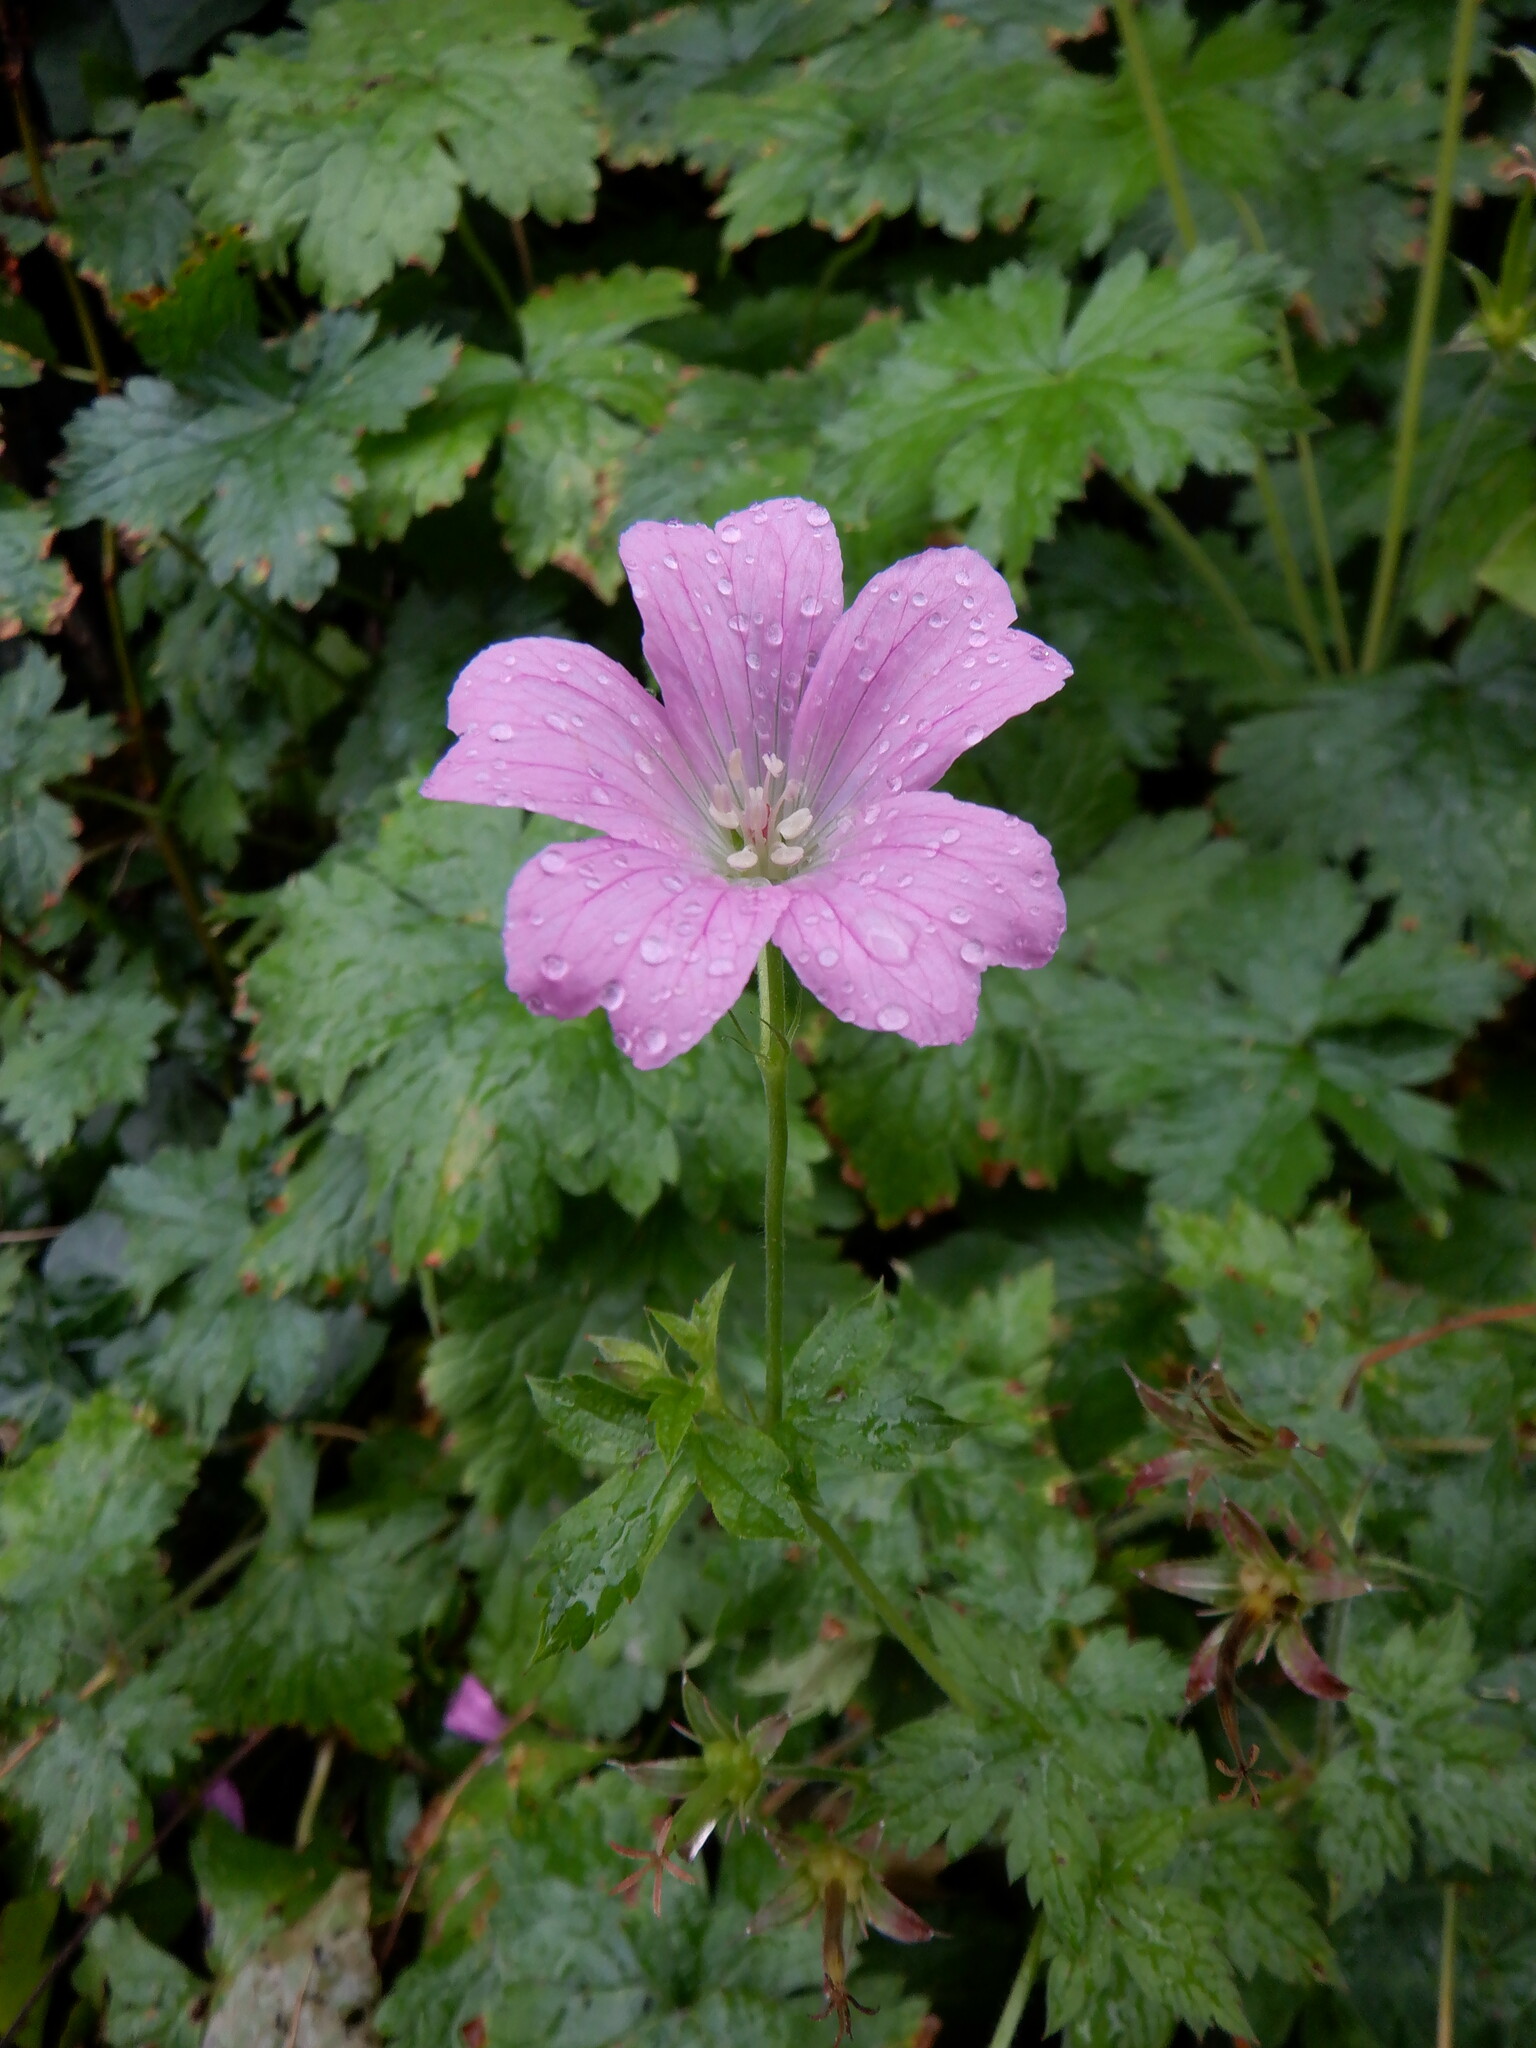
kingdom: Plantae
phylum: Tracheophyta
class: Magnoliopsida
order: Geraniales
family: Geraniaceae
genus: Geranium
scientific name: Geranium oxonianum
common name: Druce's crane's-bill
